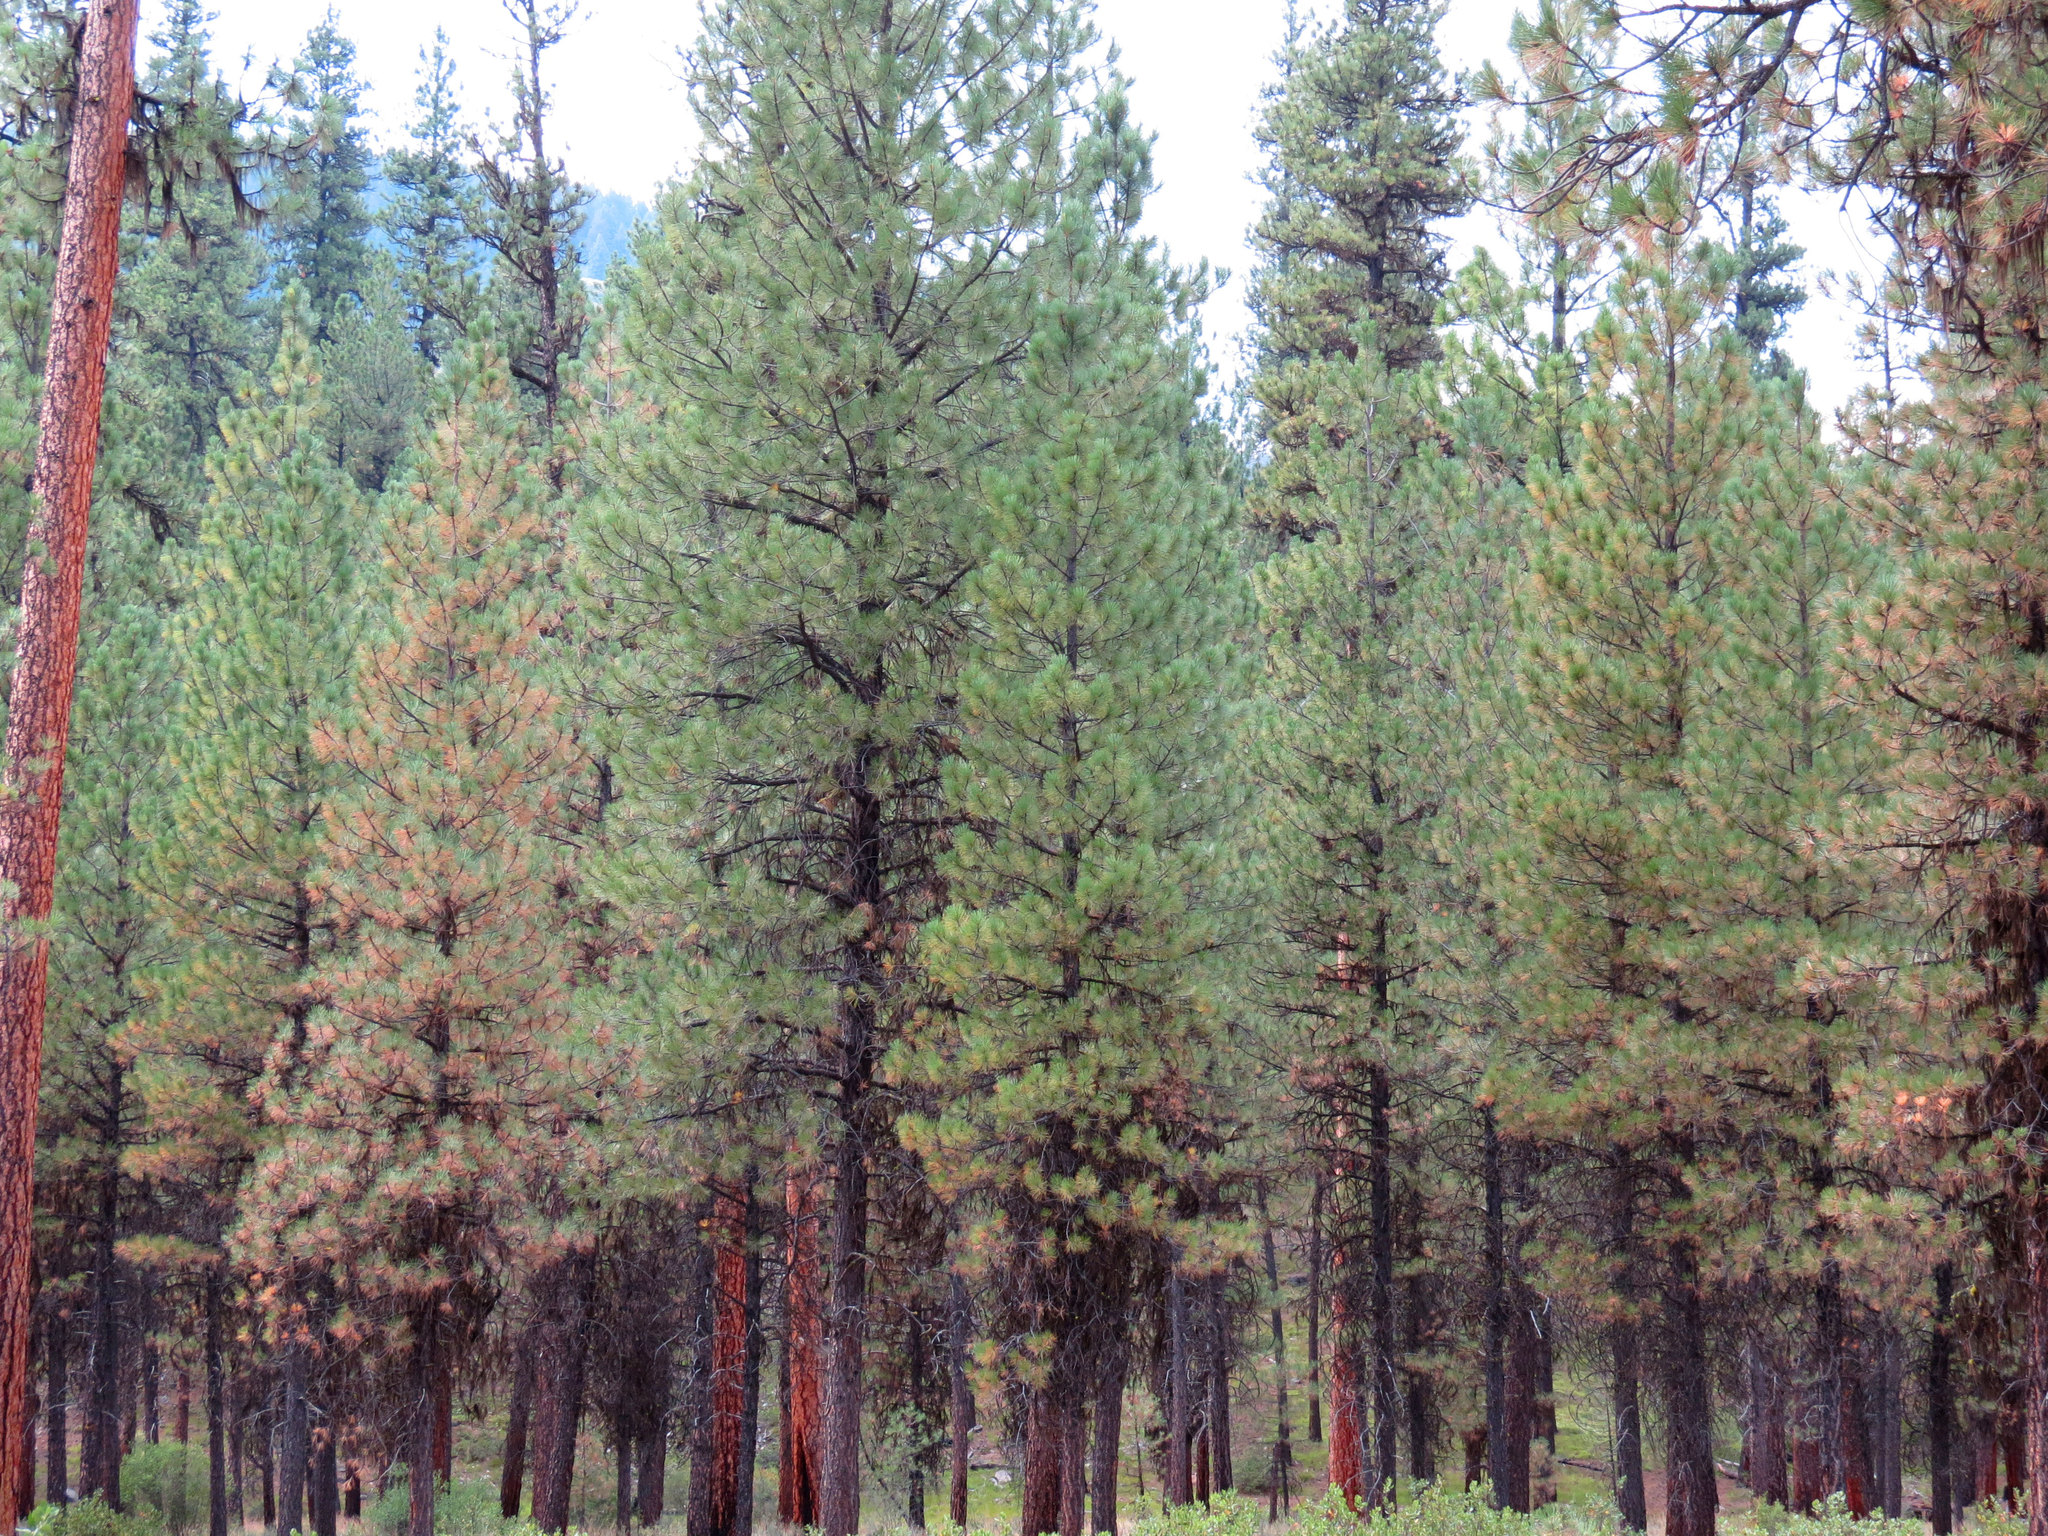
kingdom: Plantae
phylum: Tracheophyta
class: Pinopsida
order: Pinales
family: Pinaceae
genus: Pinus
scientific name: Pinus ponderosa
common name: Western yellow-pine
